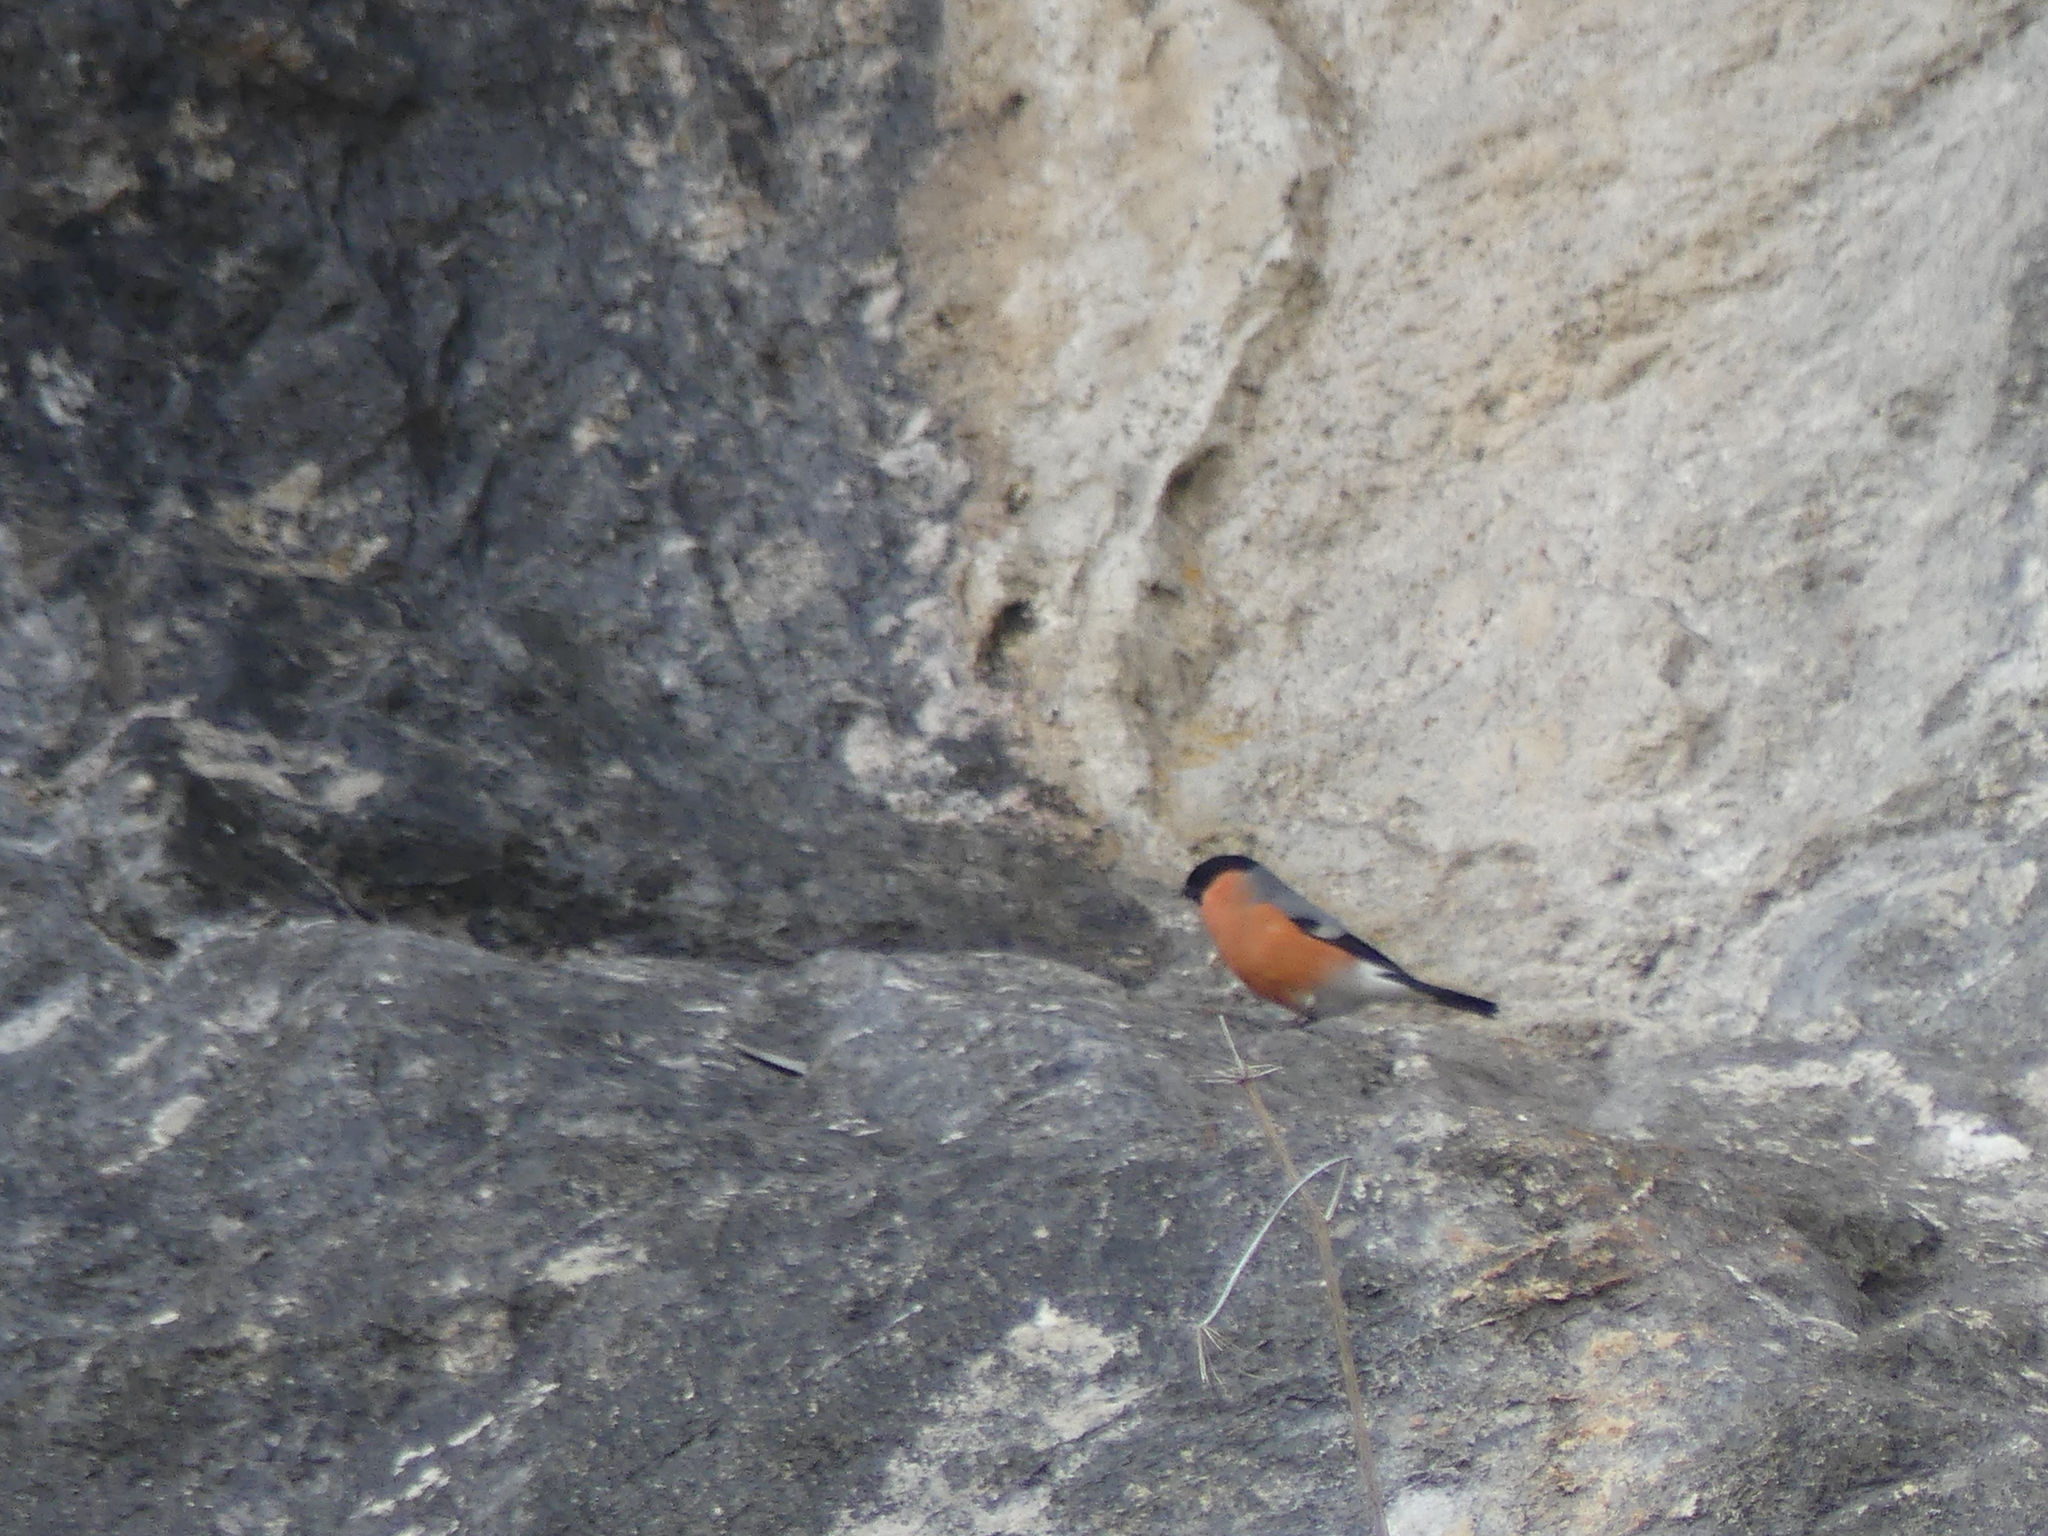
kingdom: Animalia
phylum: Chordata
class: Aves
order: Passeriformes
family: Fringillidae
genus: Pyrrhula
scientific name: Pyrrhula pyrrhula
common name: Eurasian bullfinch
